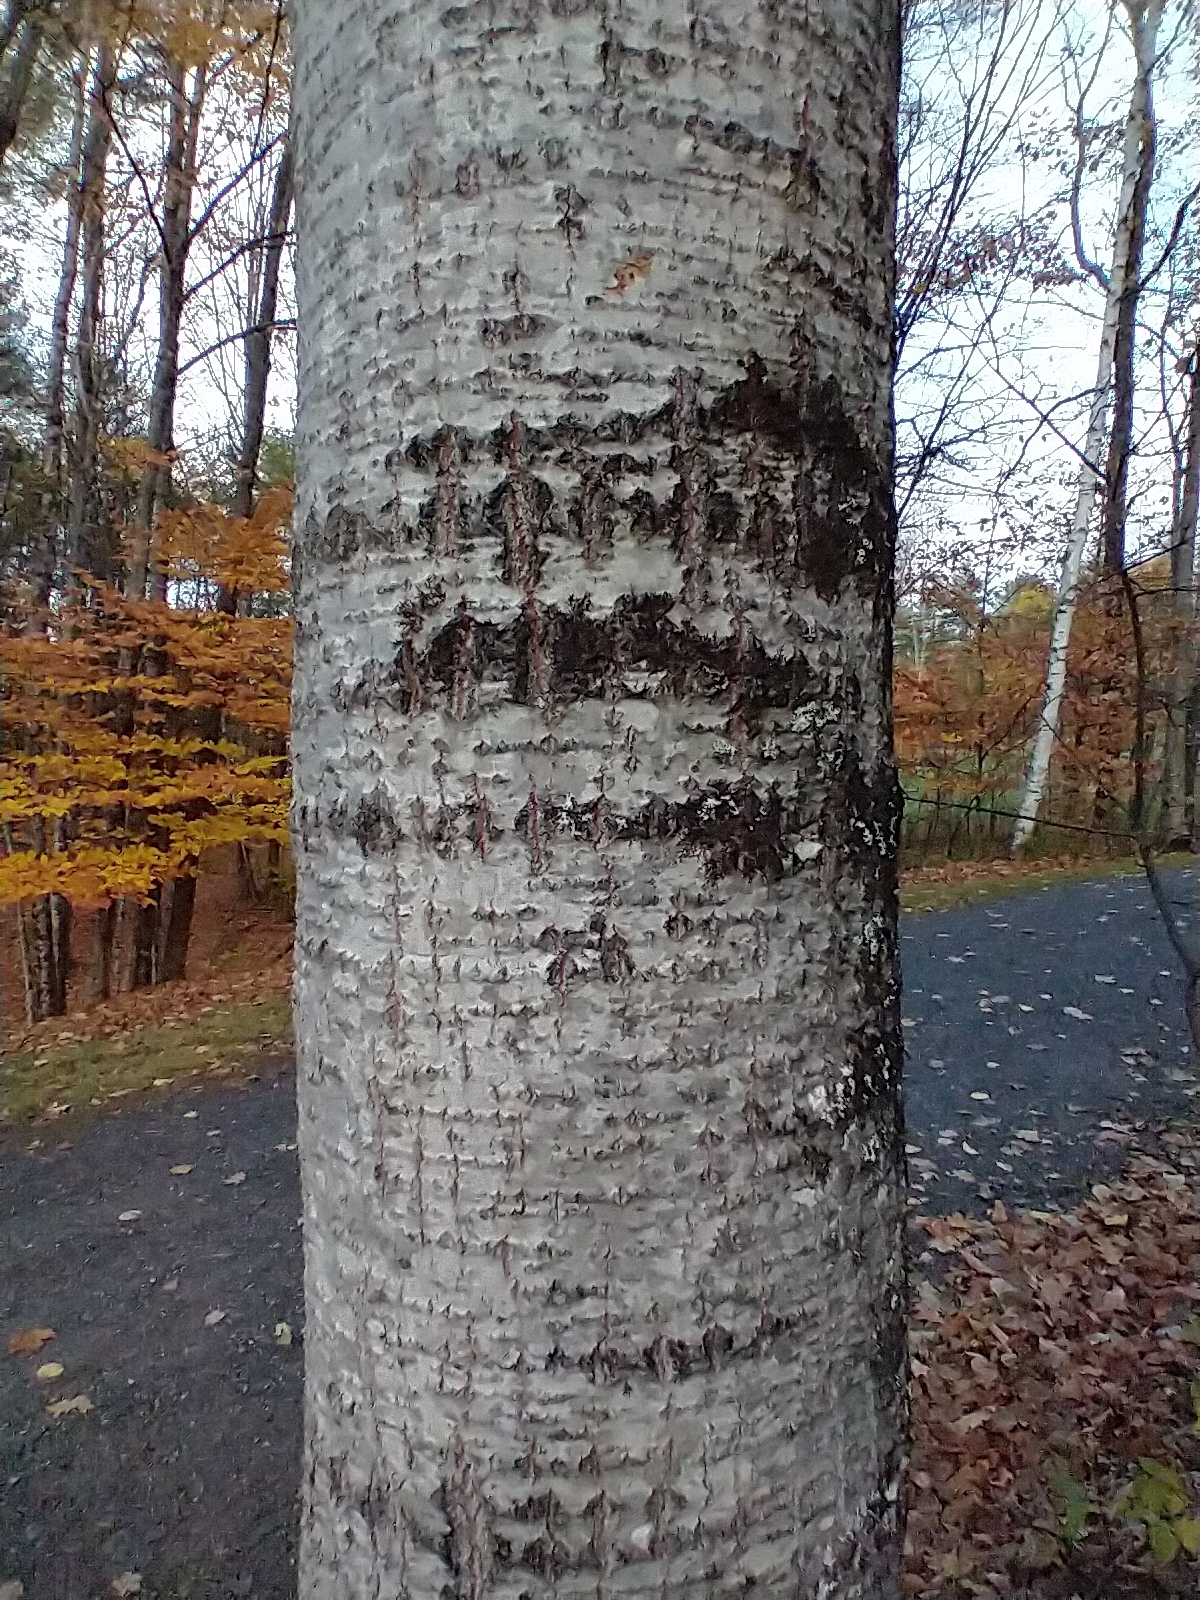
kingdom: Plantae
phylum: Tracheophyta
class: Magnoliopsida
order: Malpighiales
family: Salicaceae
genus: Populus
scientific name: Populus grandidentata
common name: Bigtooth aspen
